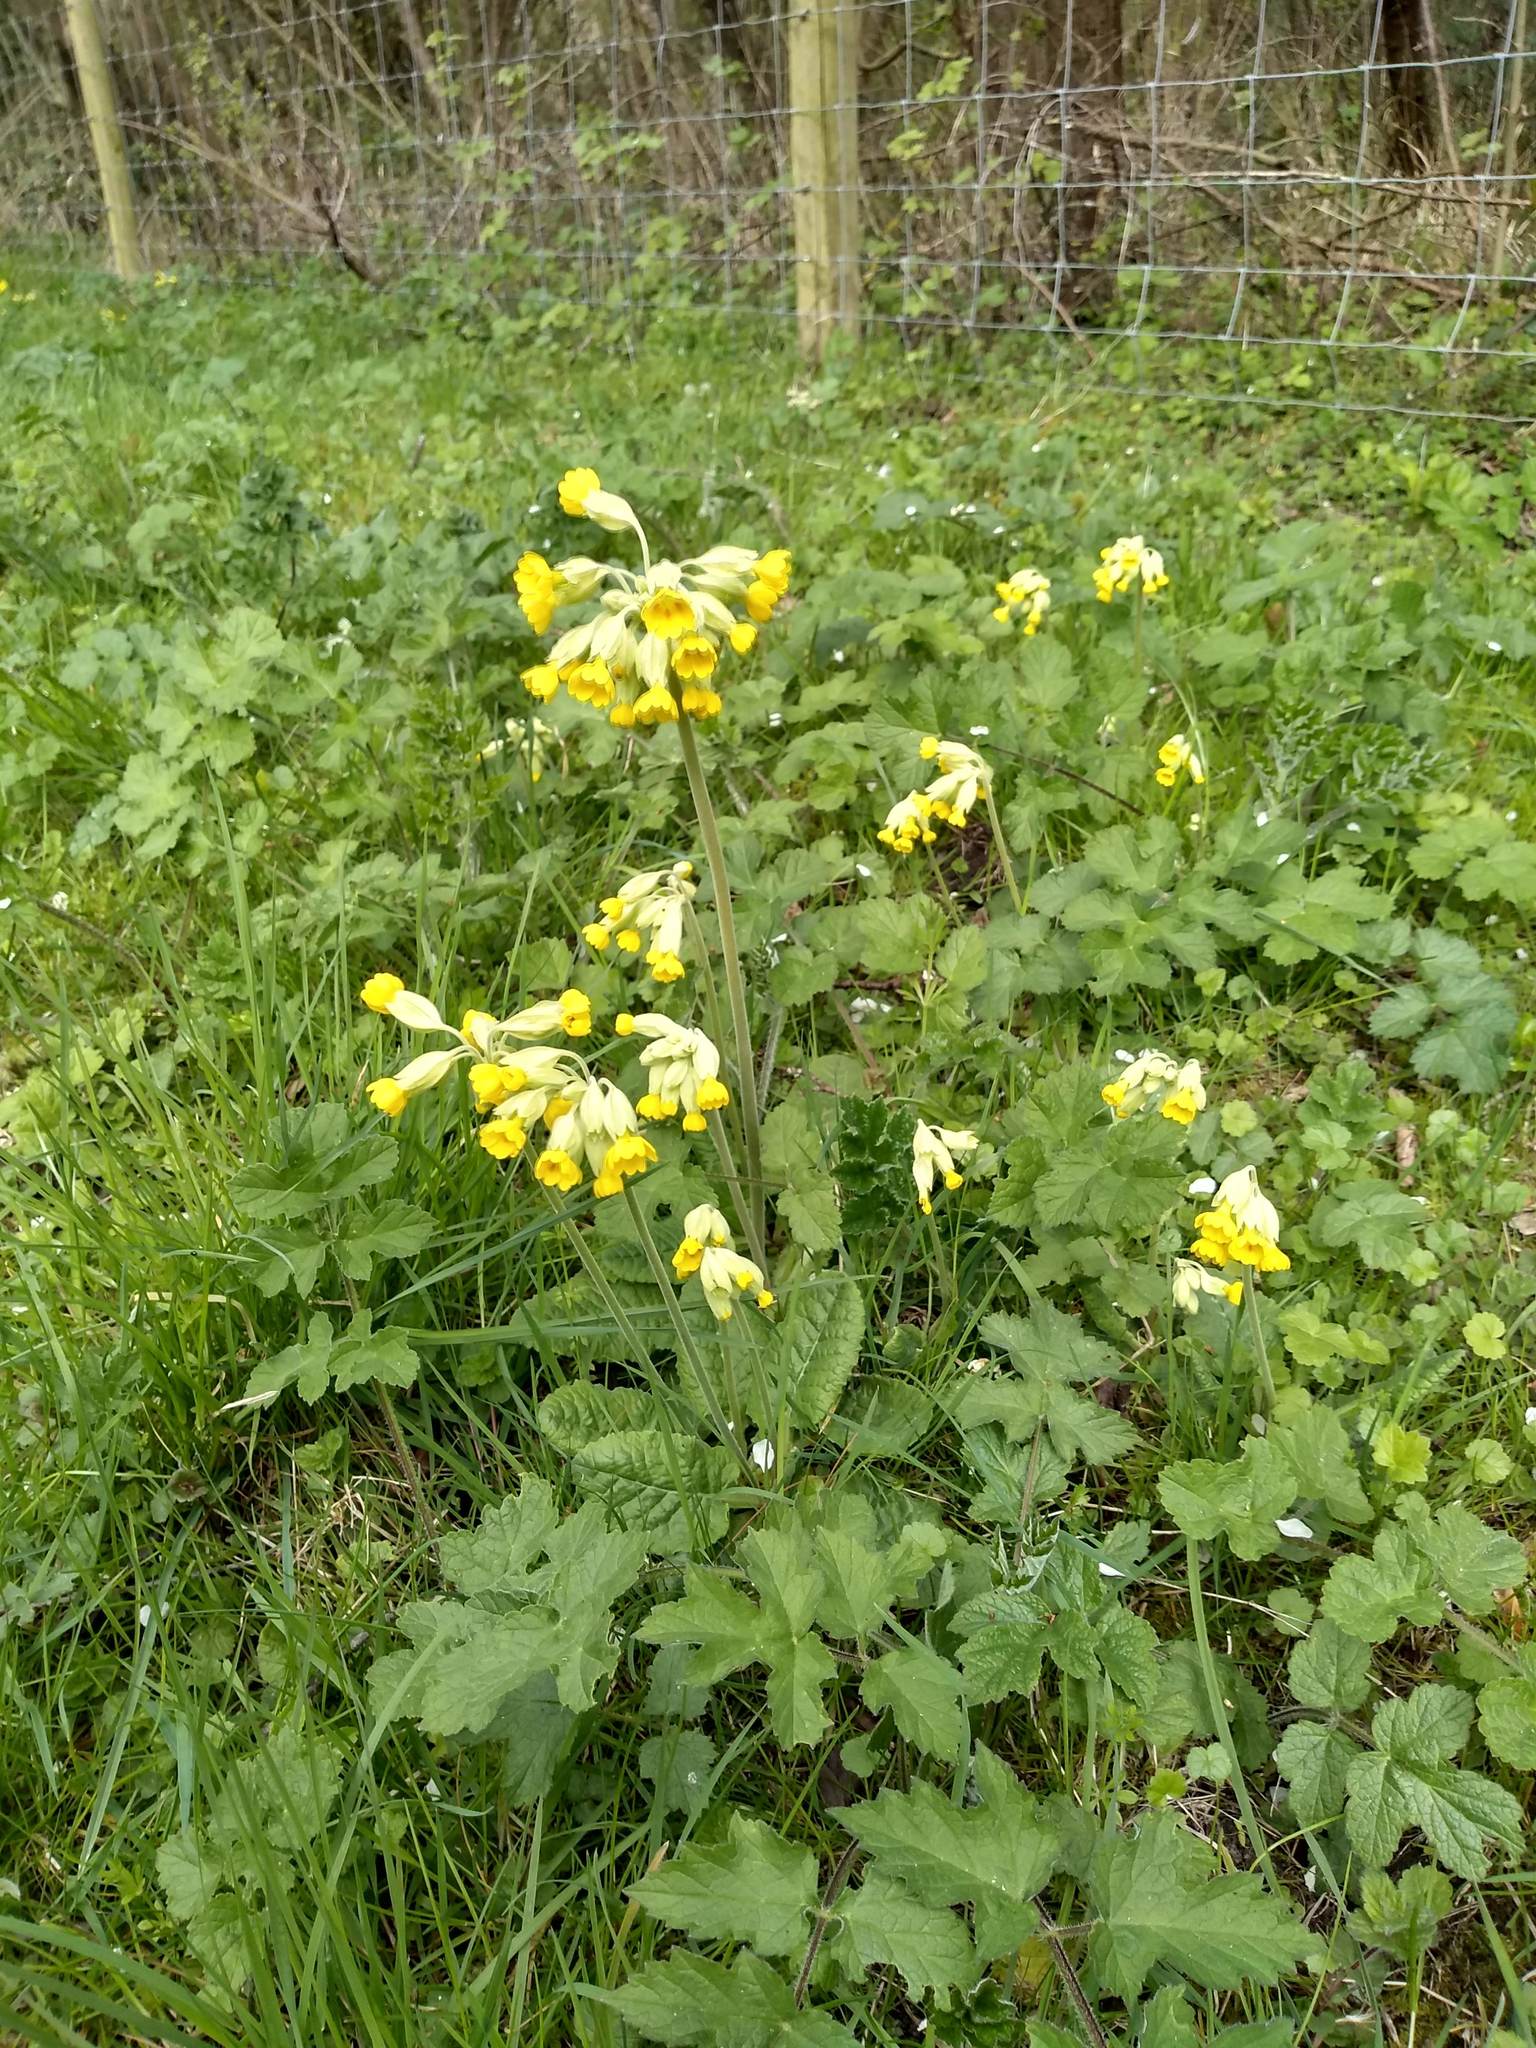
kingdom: Plantae
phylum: Tracheophyta
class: Magnoliopsida
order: Ericales
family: Primulaceae
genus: Primula
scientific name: Primula veris
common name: Cowslip
